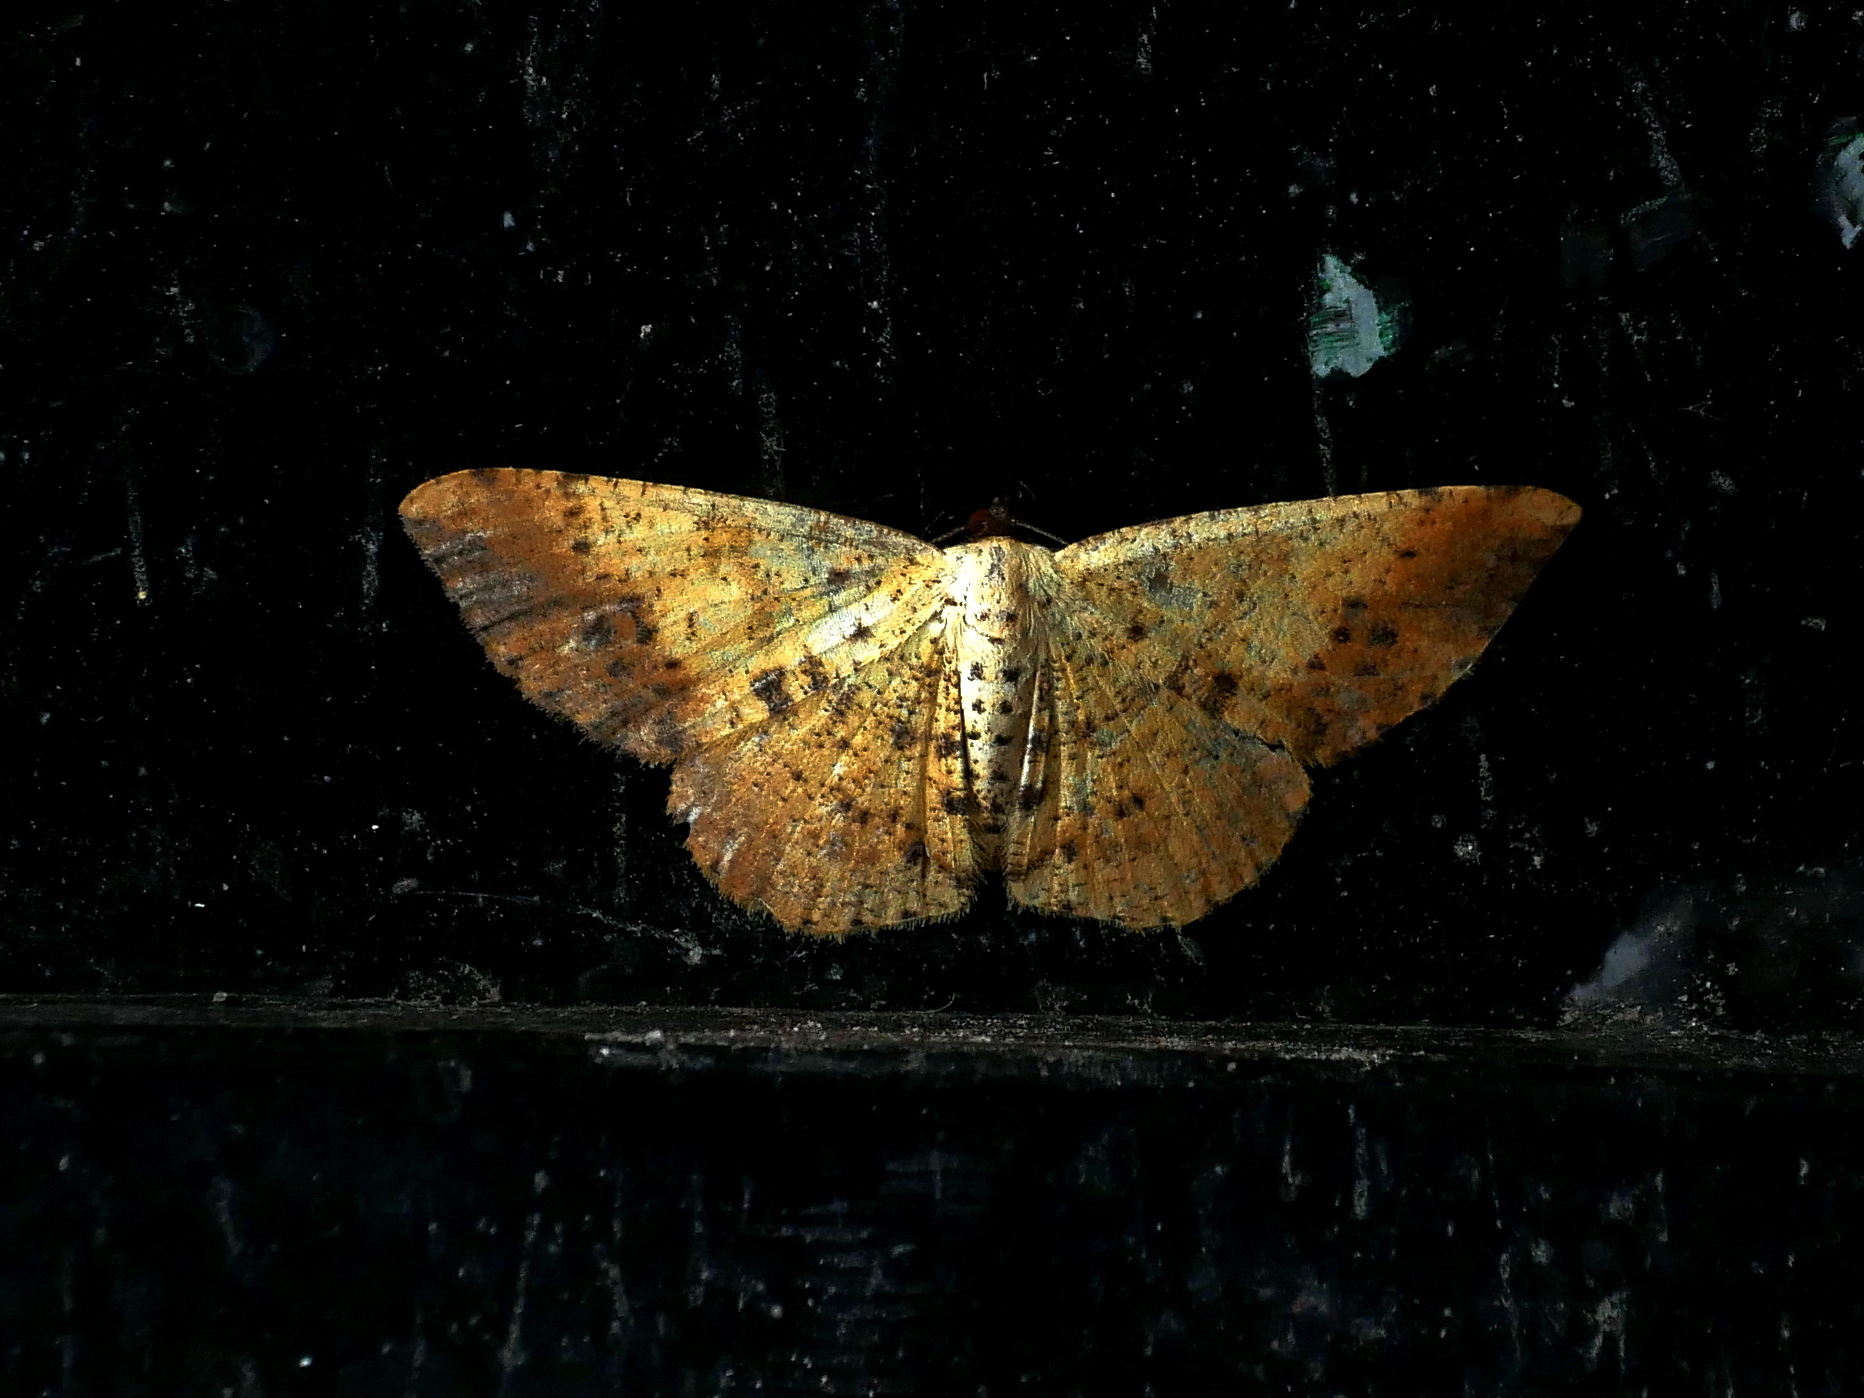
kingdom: Animalia
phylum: Arthropoda
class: Insecta
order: Lepidoptera
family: Geometridae
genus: Alcis
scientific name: Alcis ochrolaria
